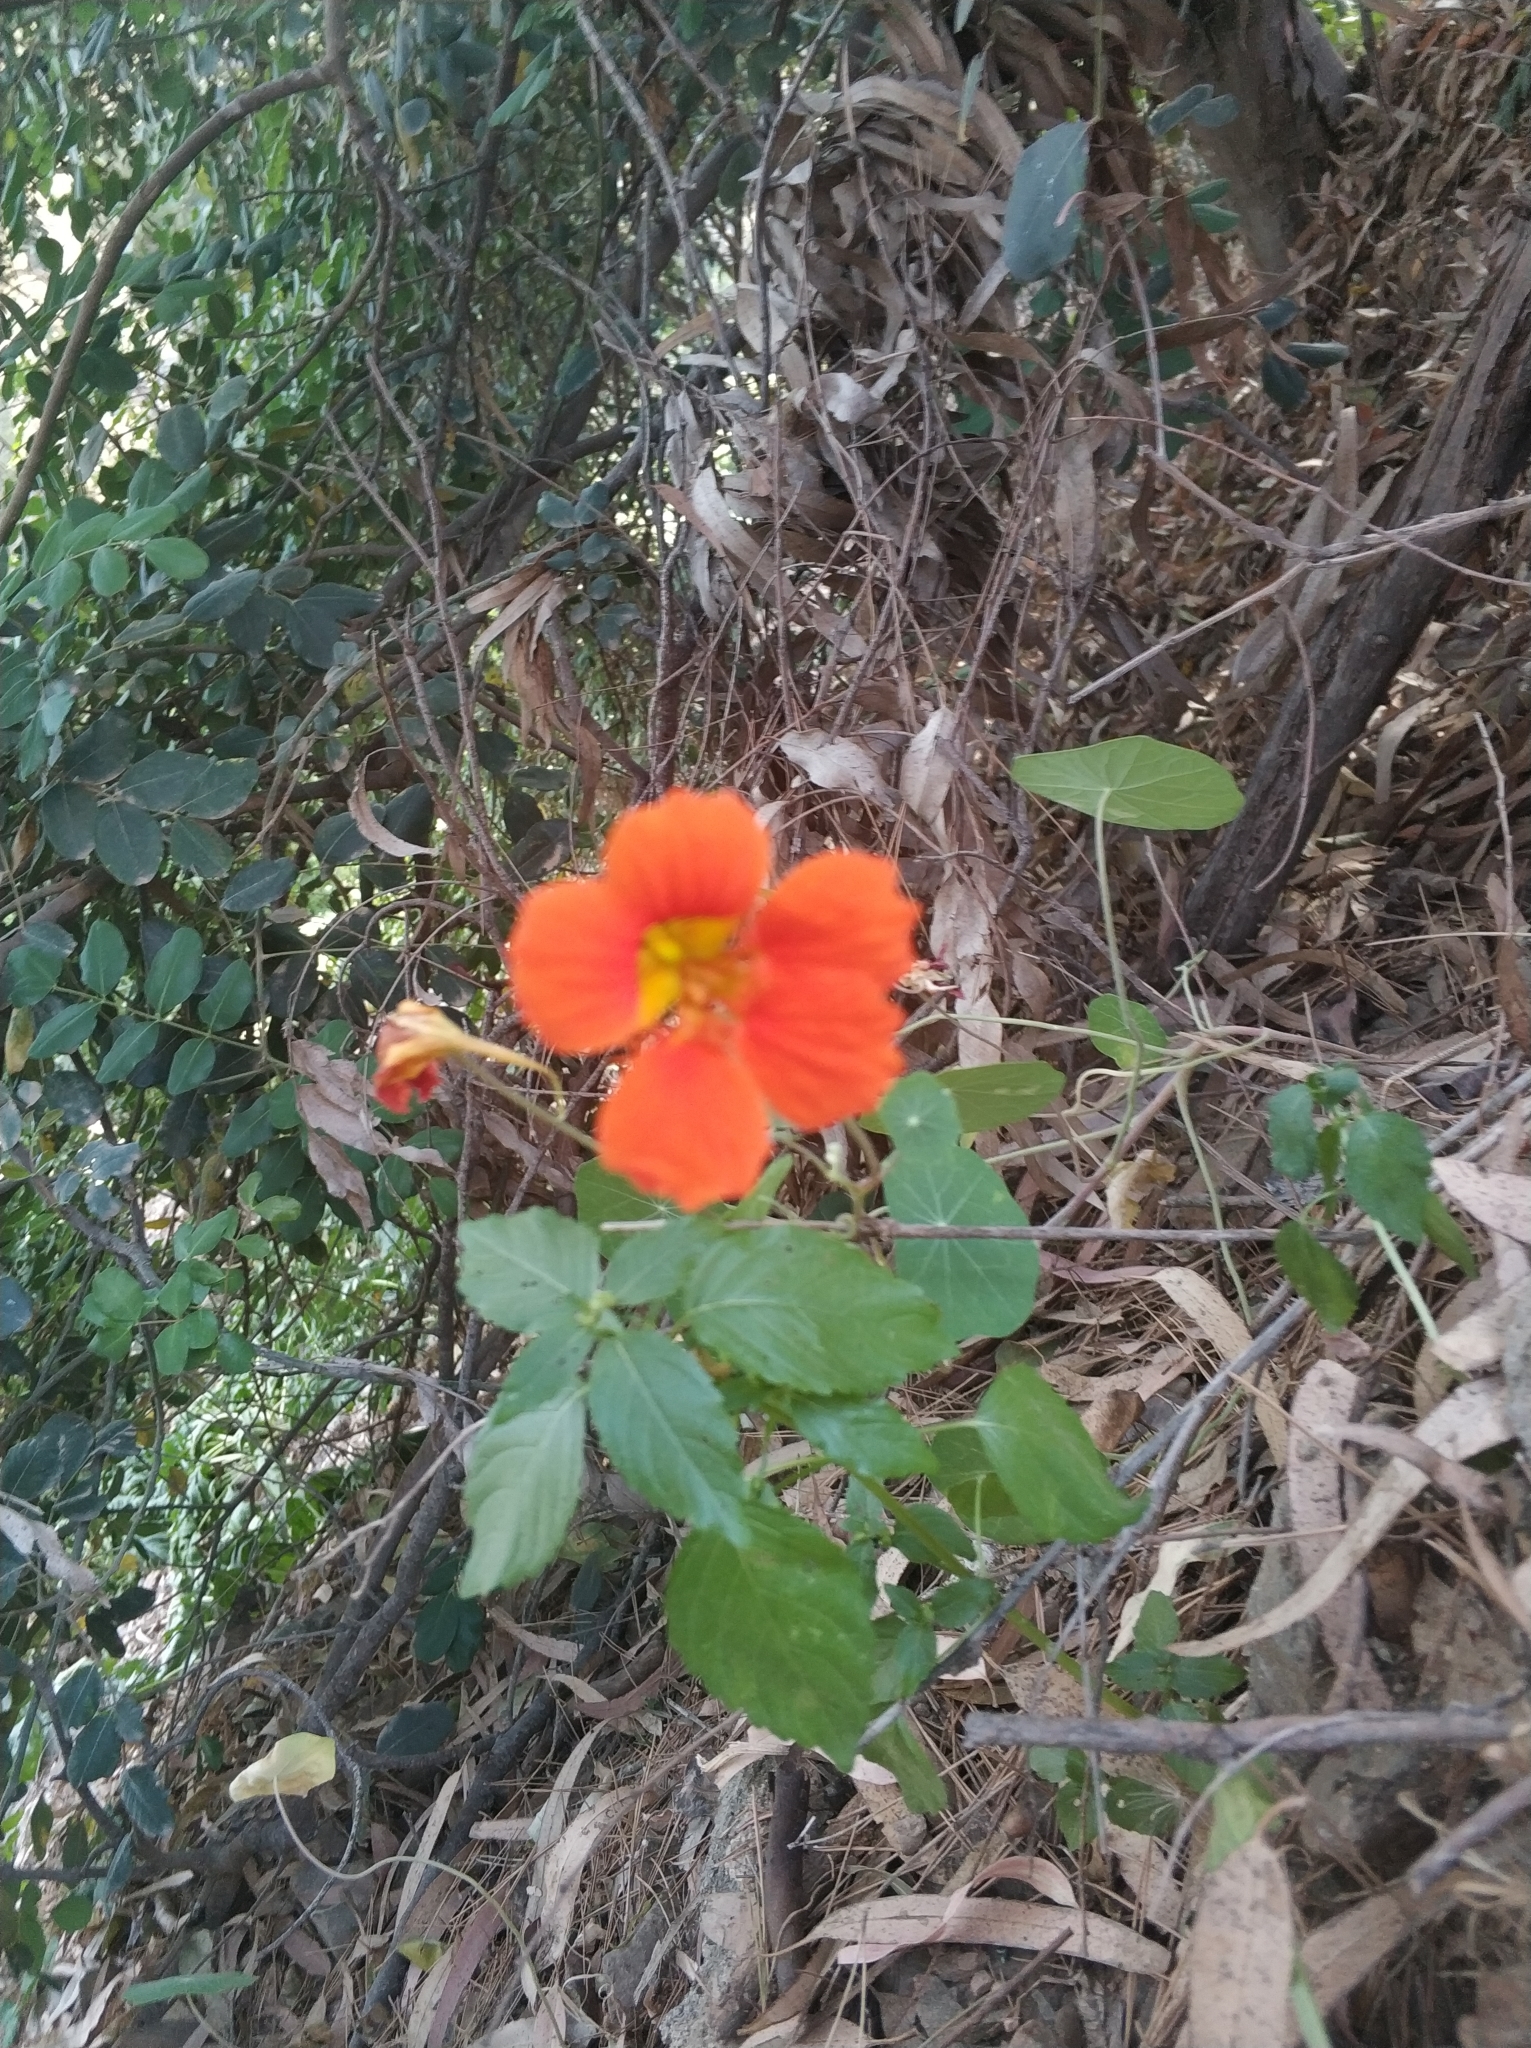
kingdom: Plantae
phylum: Tracheophyta
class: Magnoliopsida
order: Brassicales
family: Tropaeolaceae
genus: Tropaeolum
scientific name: Tropaeolum majus
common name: Nasturtium
